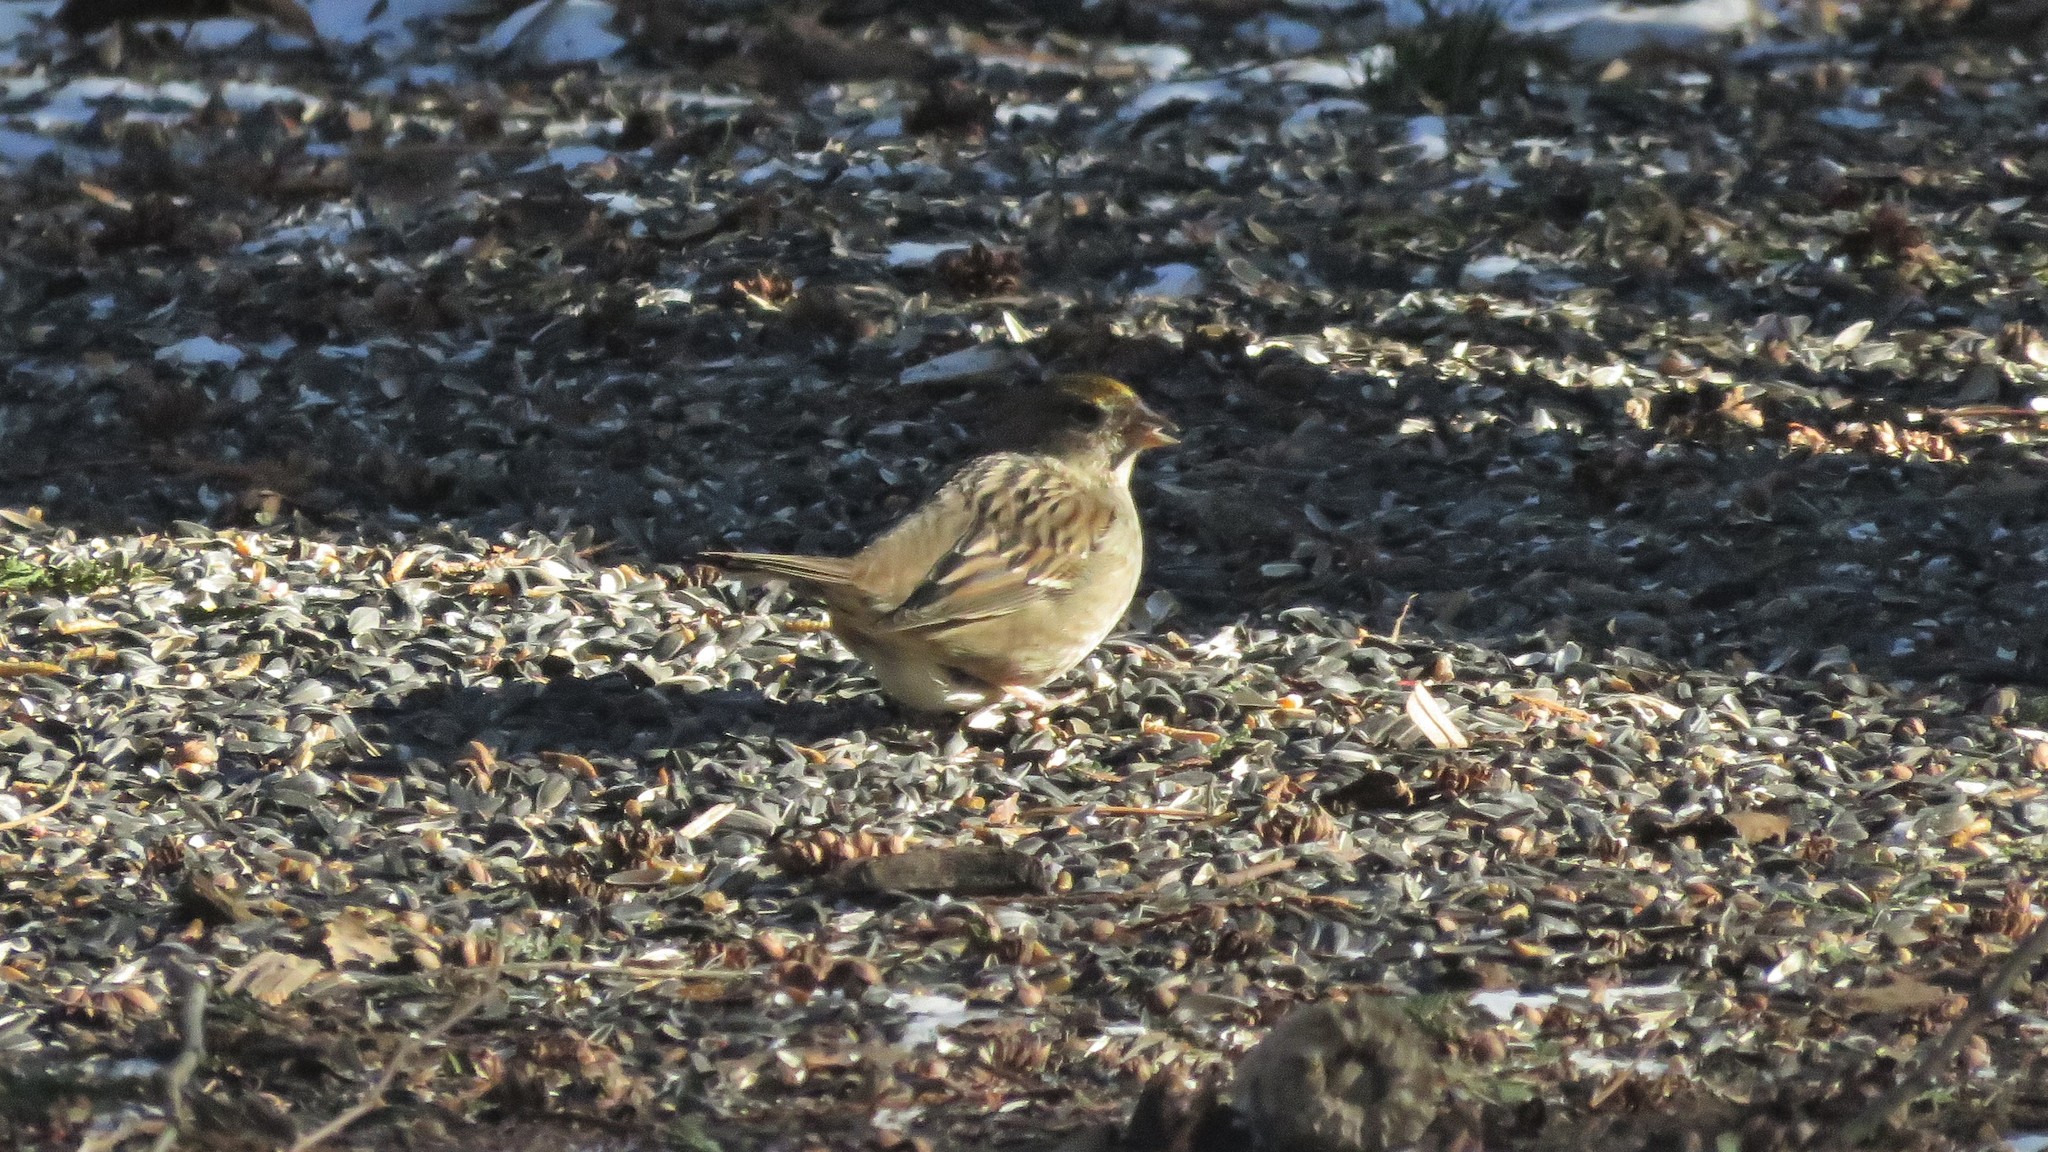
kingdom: Animalia
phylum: Chordata
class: Aves
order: Passeriformes
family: Passerellidae
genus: Zonotrichia
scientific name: Zonotrichia atricapilla
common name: Golden-crowned sparrow
